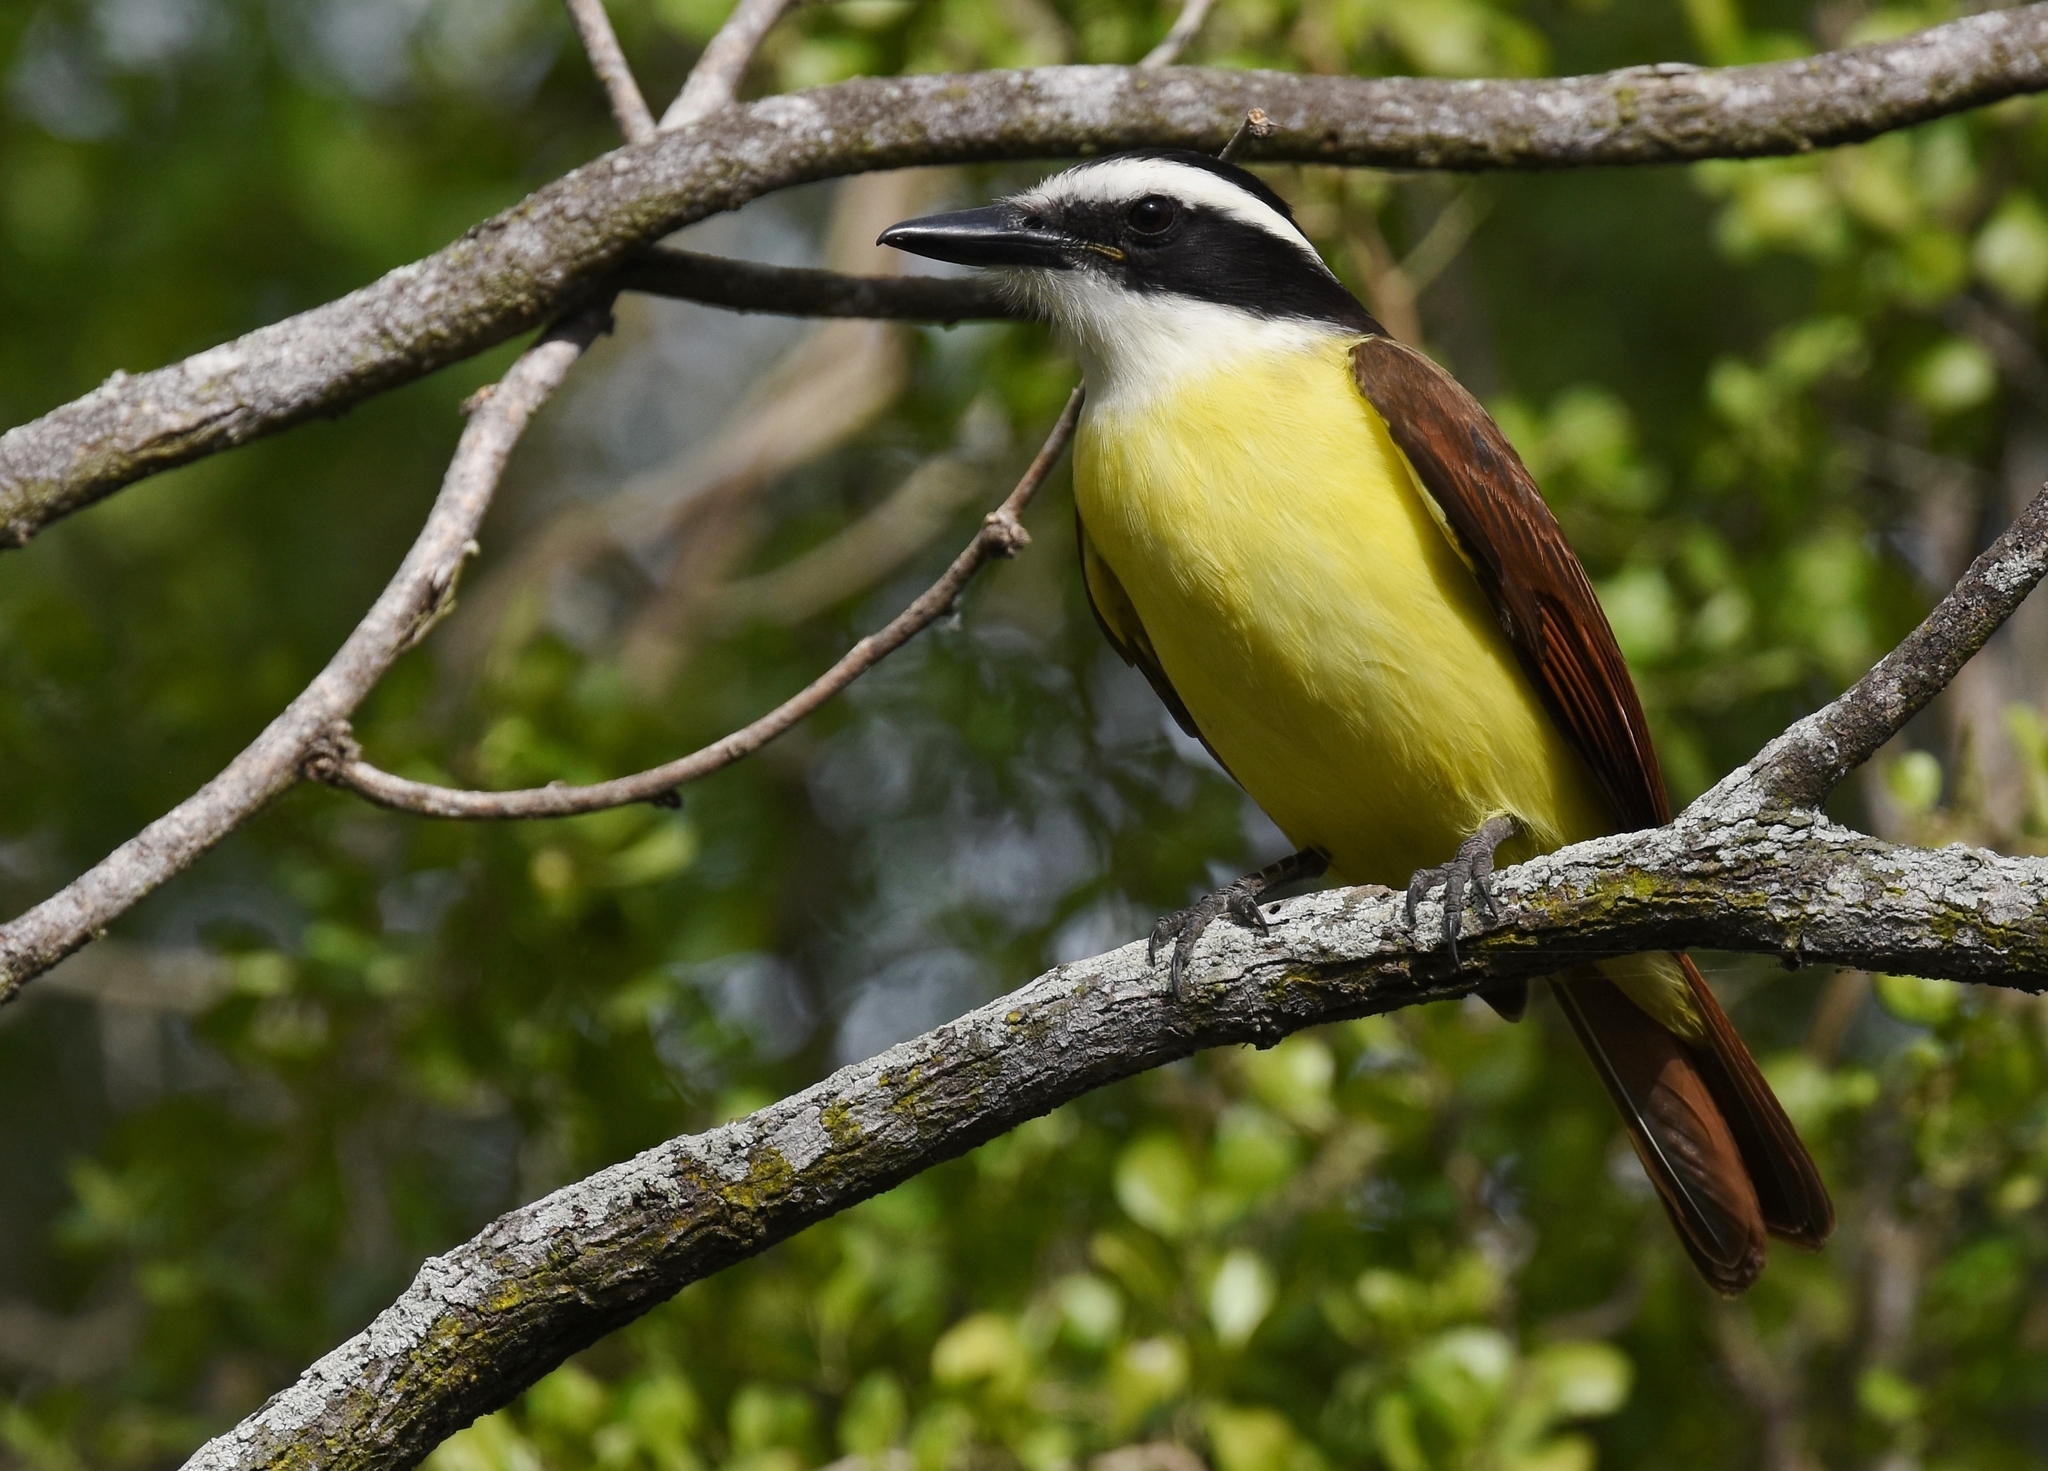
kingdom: Animalia
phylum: Chordata
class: Aves
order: Passeriformes
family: Tyrannidae
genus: Pitangus
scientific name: Pitangus sulphuratus
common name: Great kiskadee
